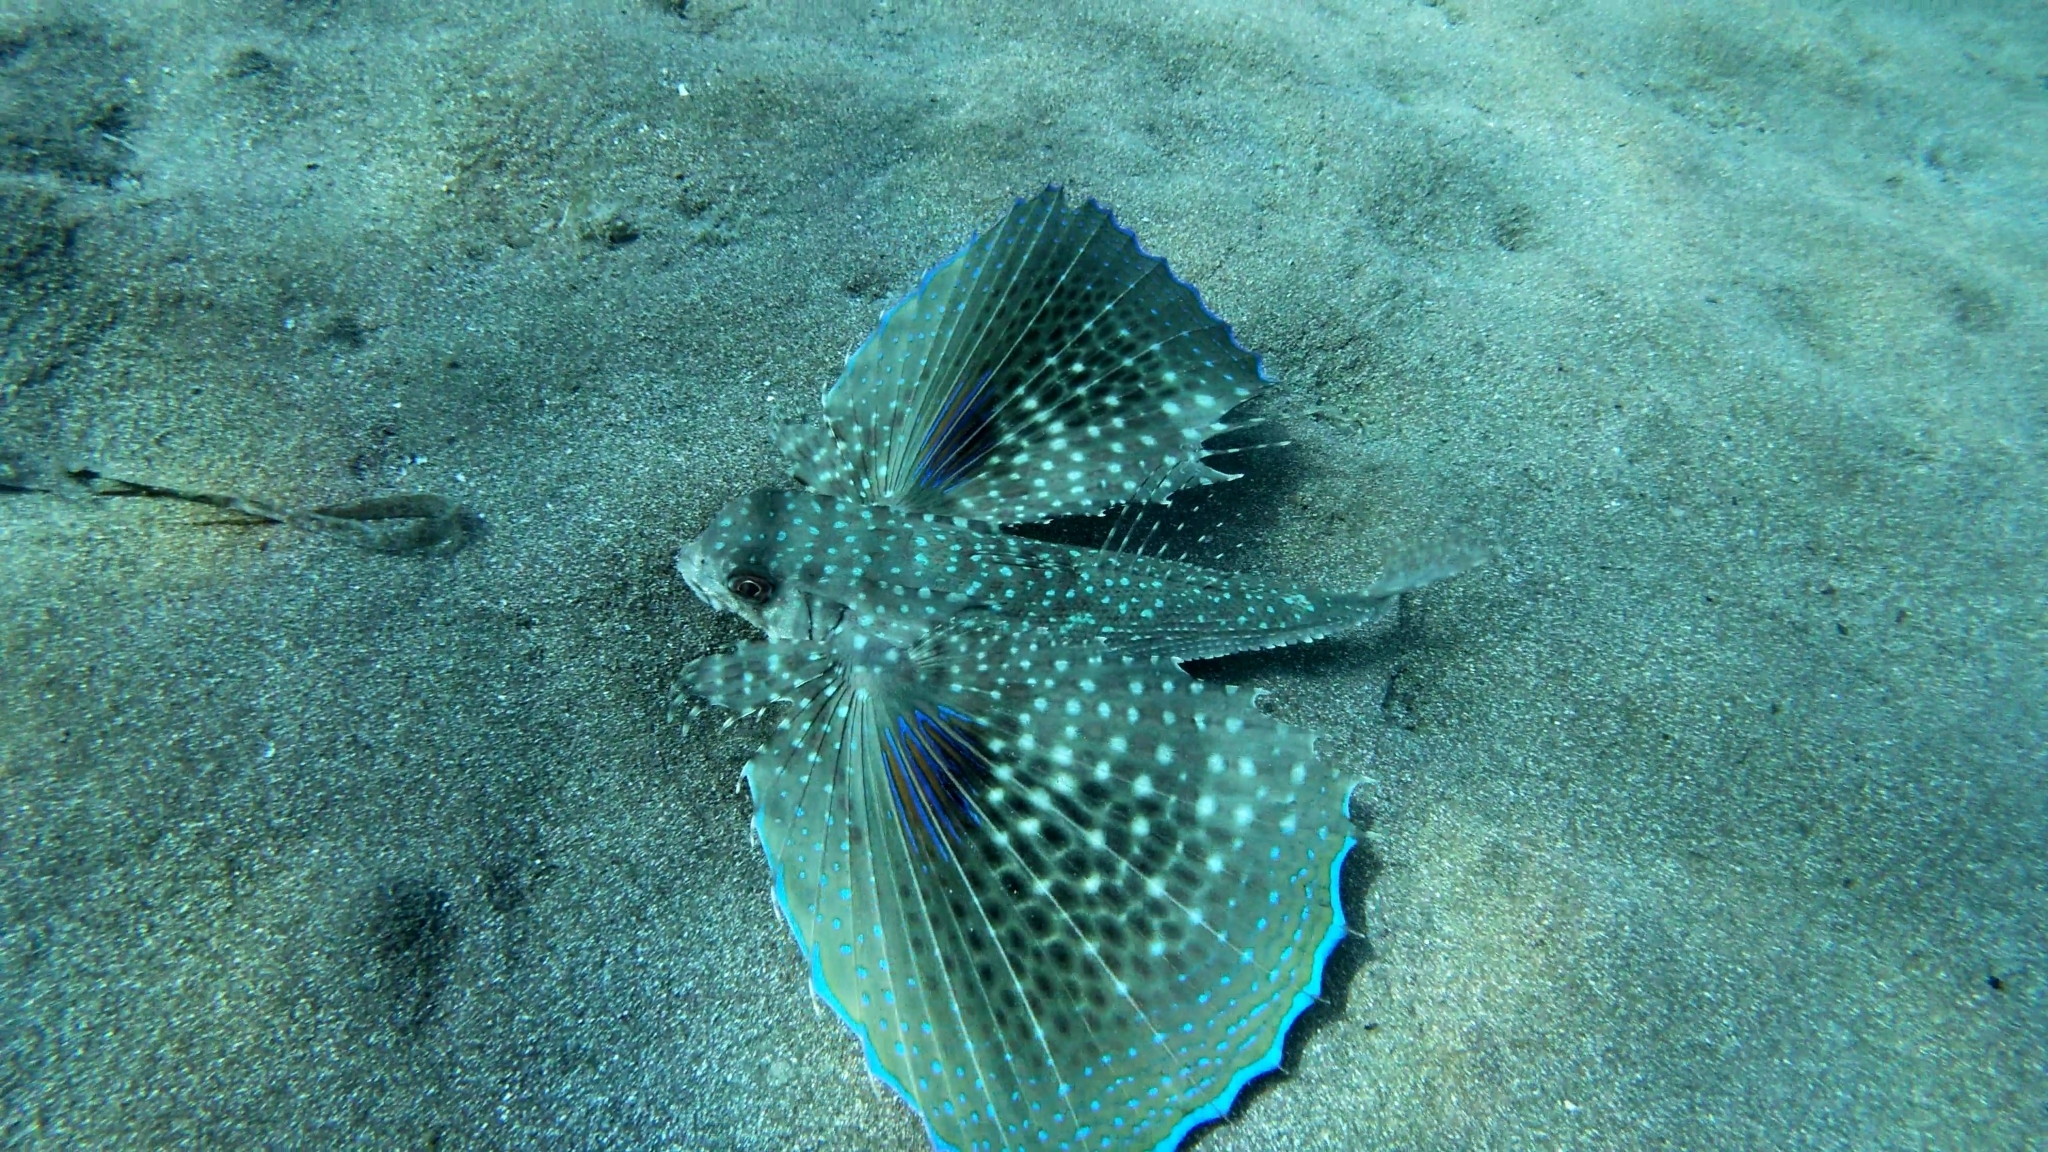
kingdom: Animalia
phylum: Chordata
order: Scorpaeniformes
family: Dactylopteridae
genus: Dactylopterus
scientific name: Dactylopterus volitans
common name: Flying gurnard
